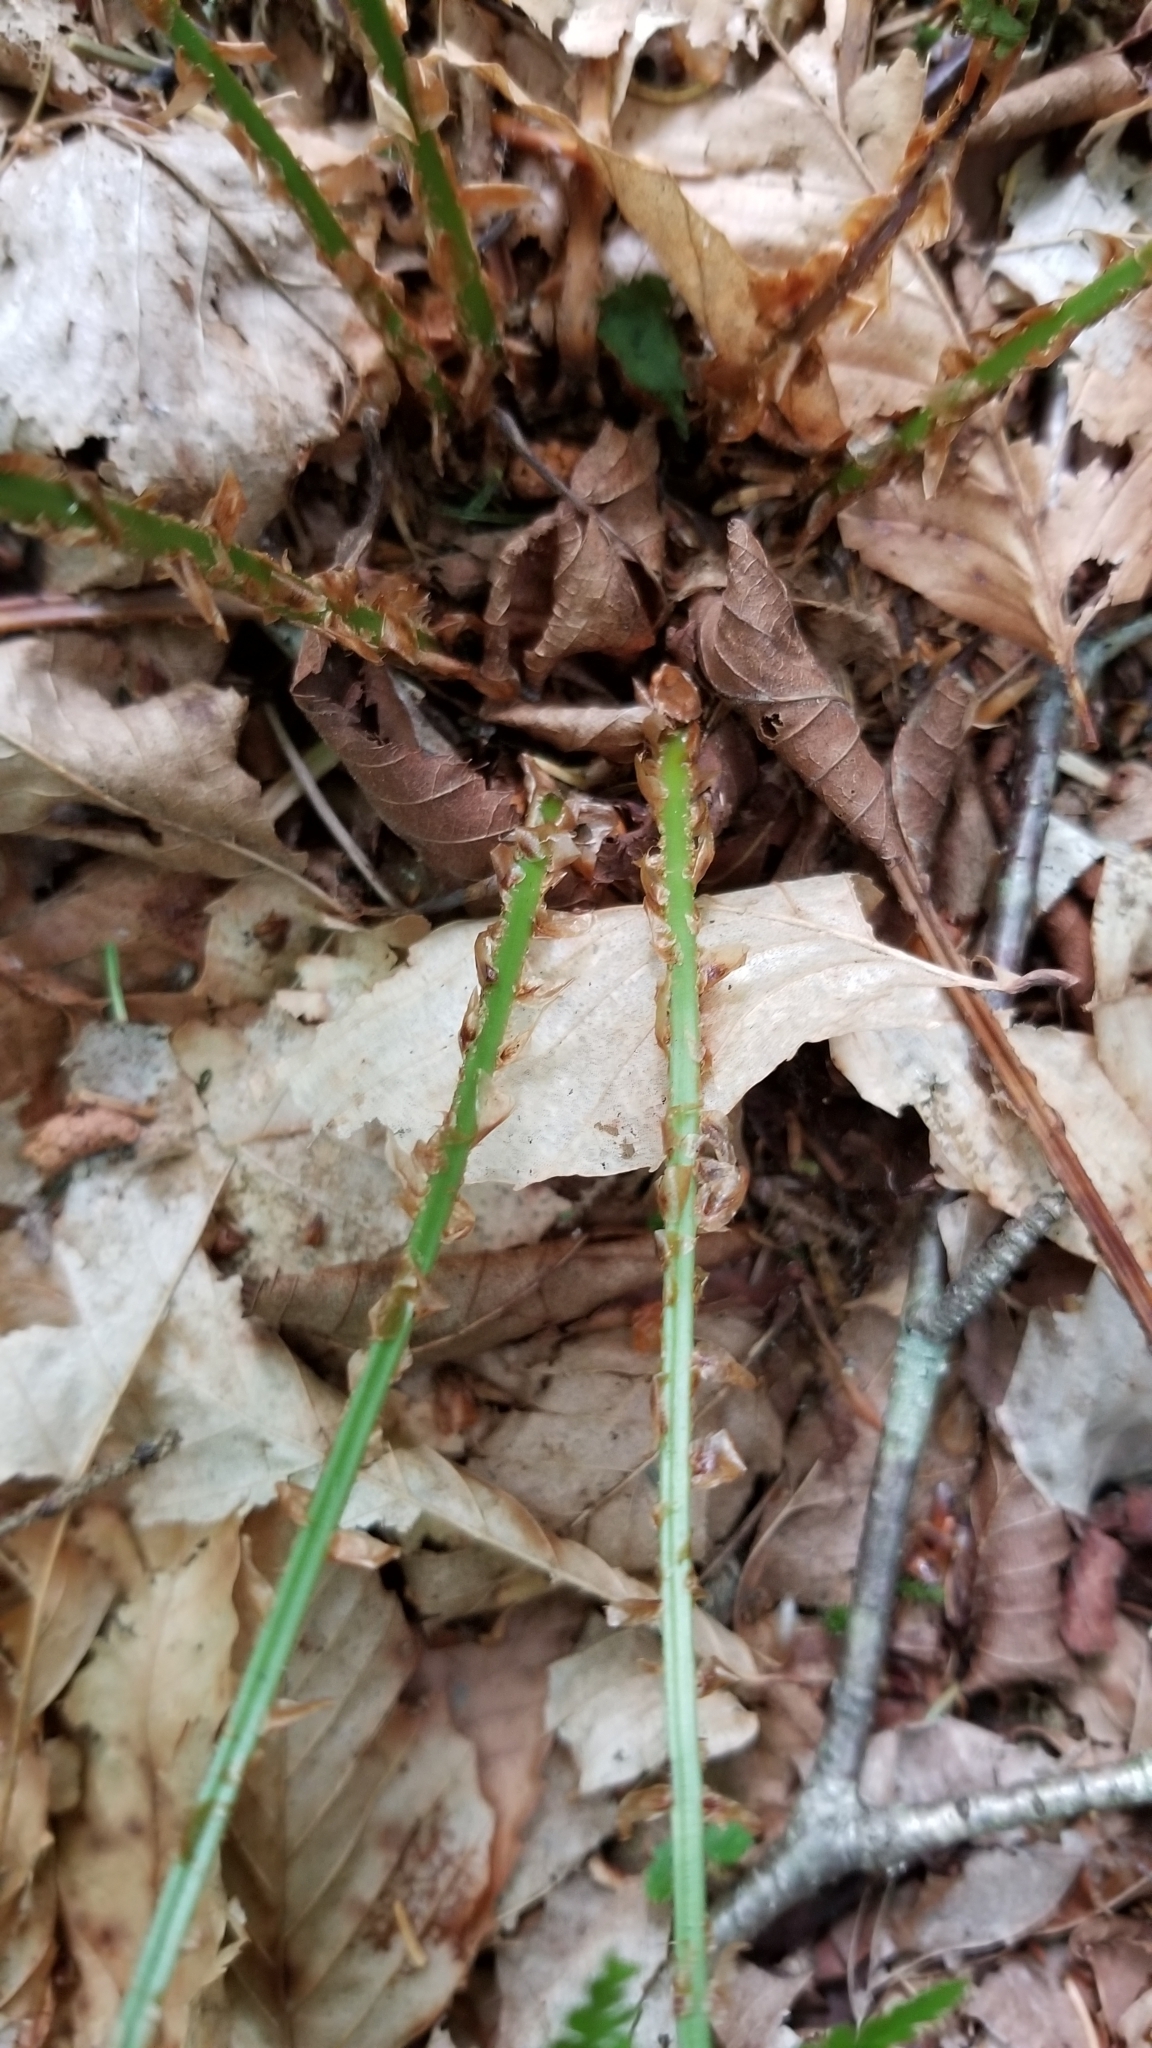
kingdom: Plantae
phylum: Tracheophyta
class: Polypodiopsida
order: Polypodiales
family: Dryopteridaceae
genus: Dryopteris
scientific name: Dryopteris intermedia
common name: Evergreen wood fern
